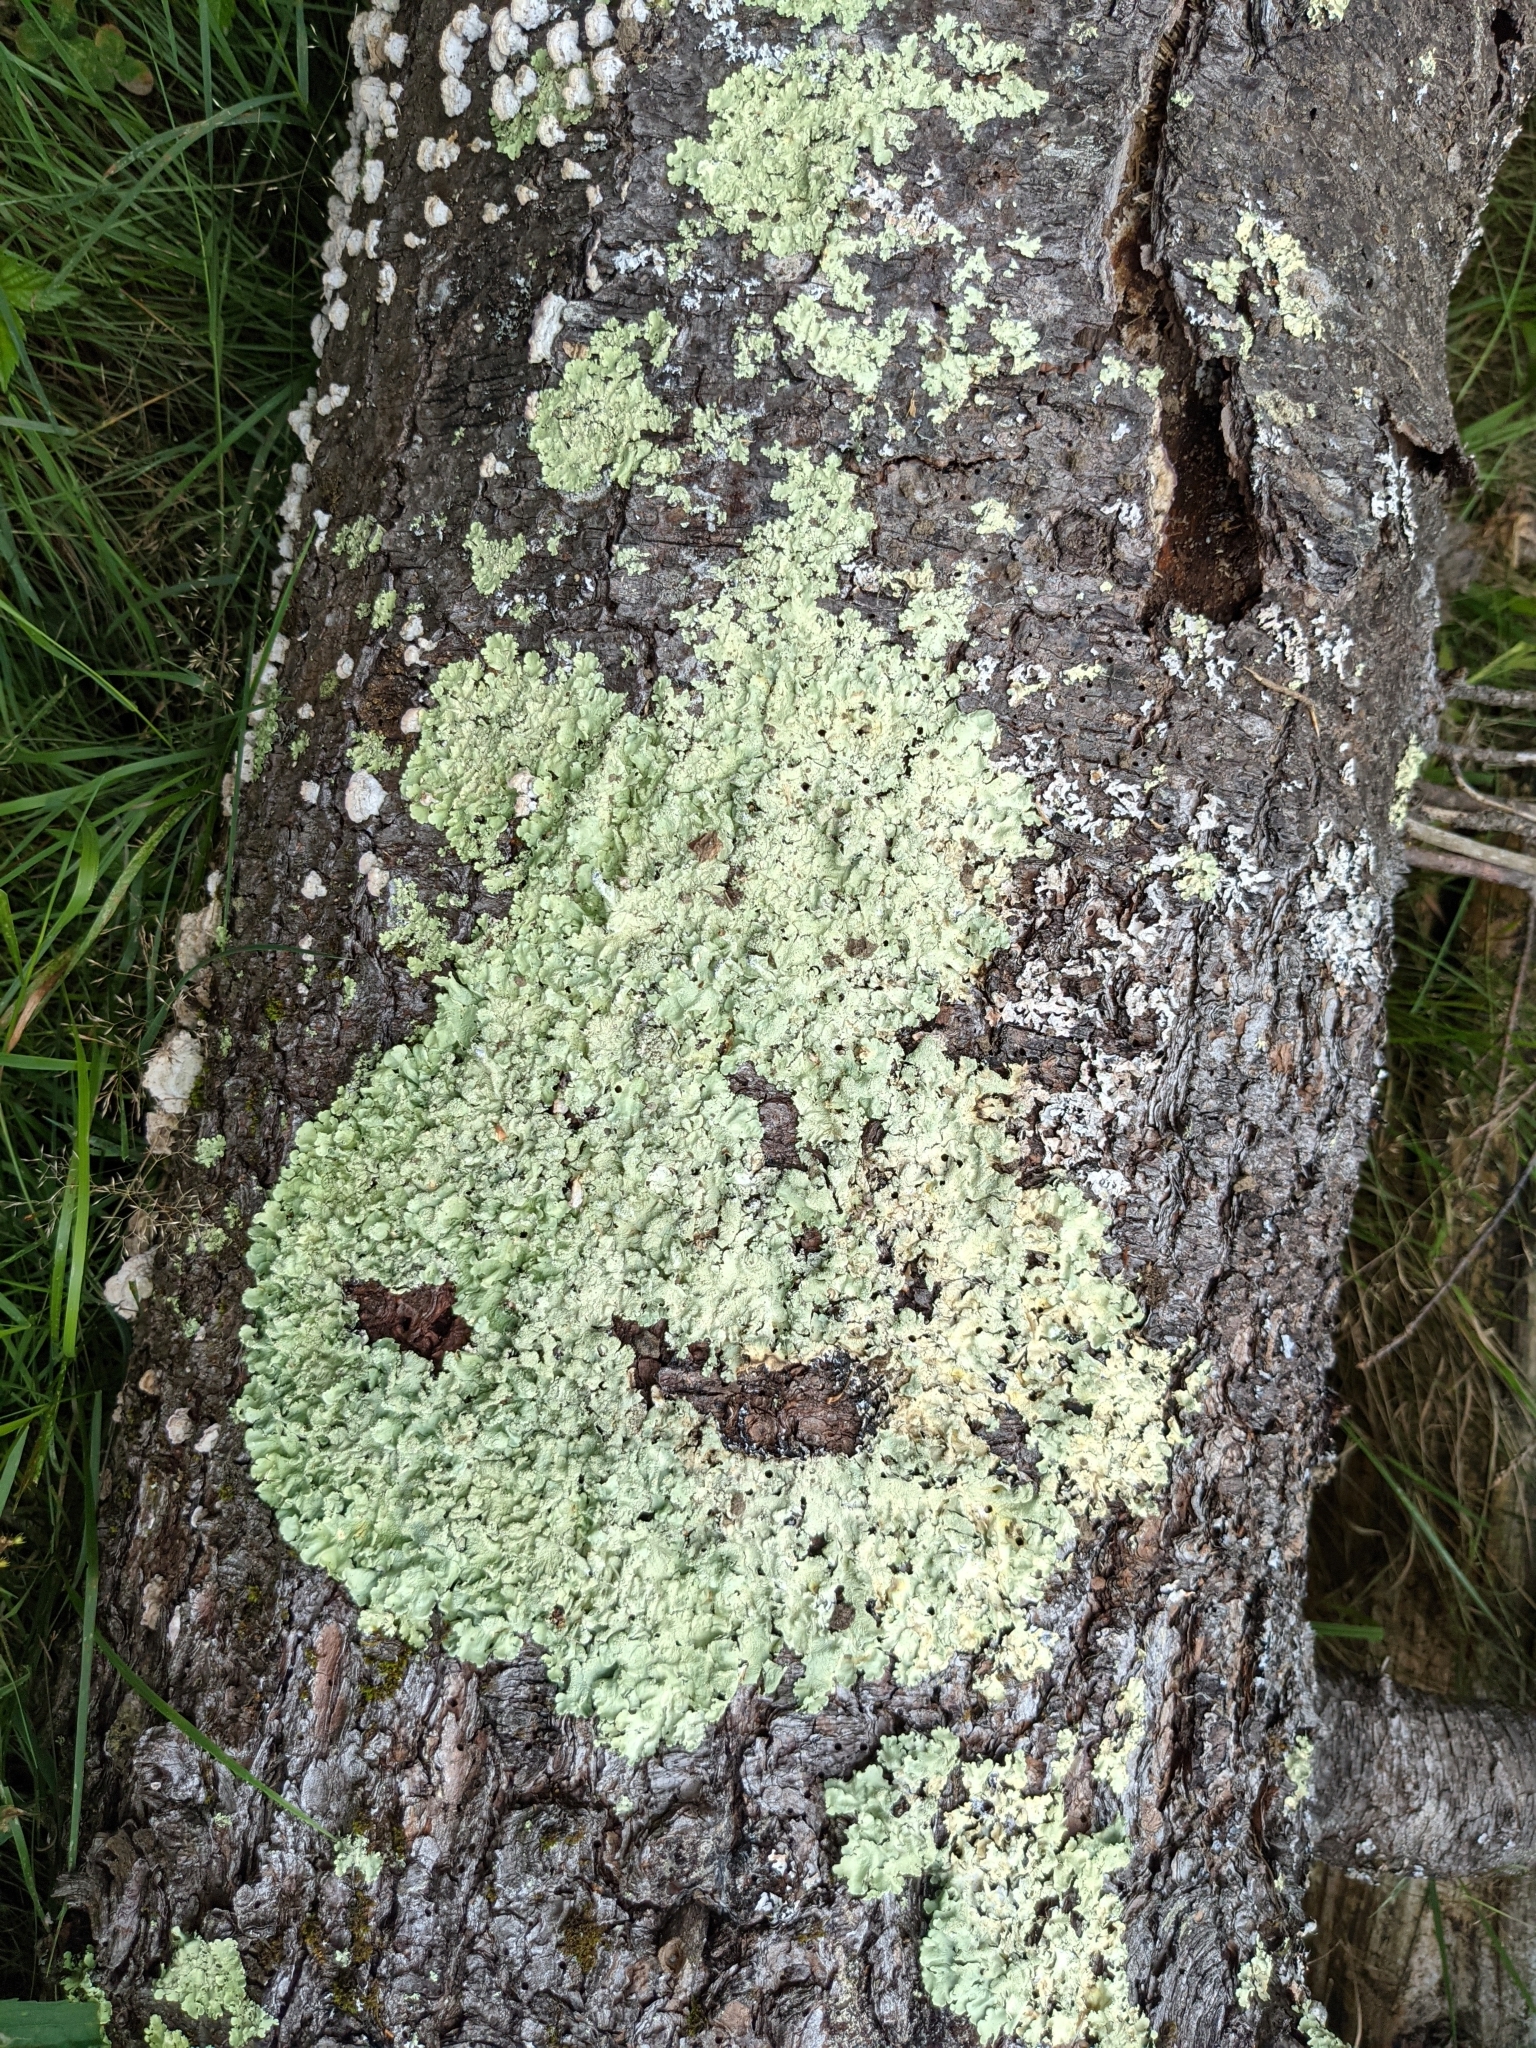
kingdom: Fungi
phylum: Ascomycota
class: Lecanoromycetes
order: Lecanorales
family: Parmeliaceae
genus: Flavoparmelia
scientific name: Flavoparmelia caperata
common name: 40-mile per hour lichen
